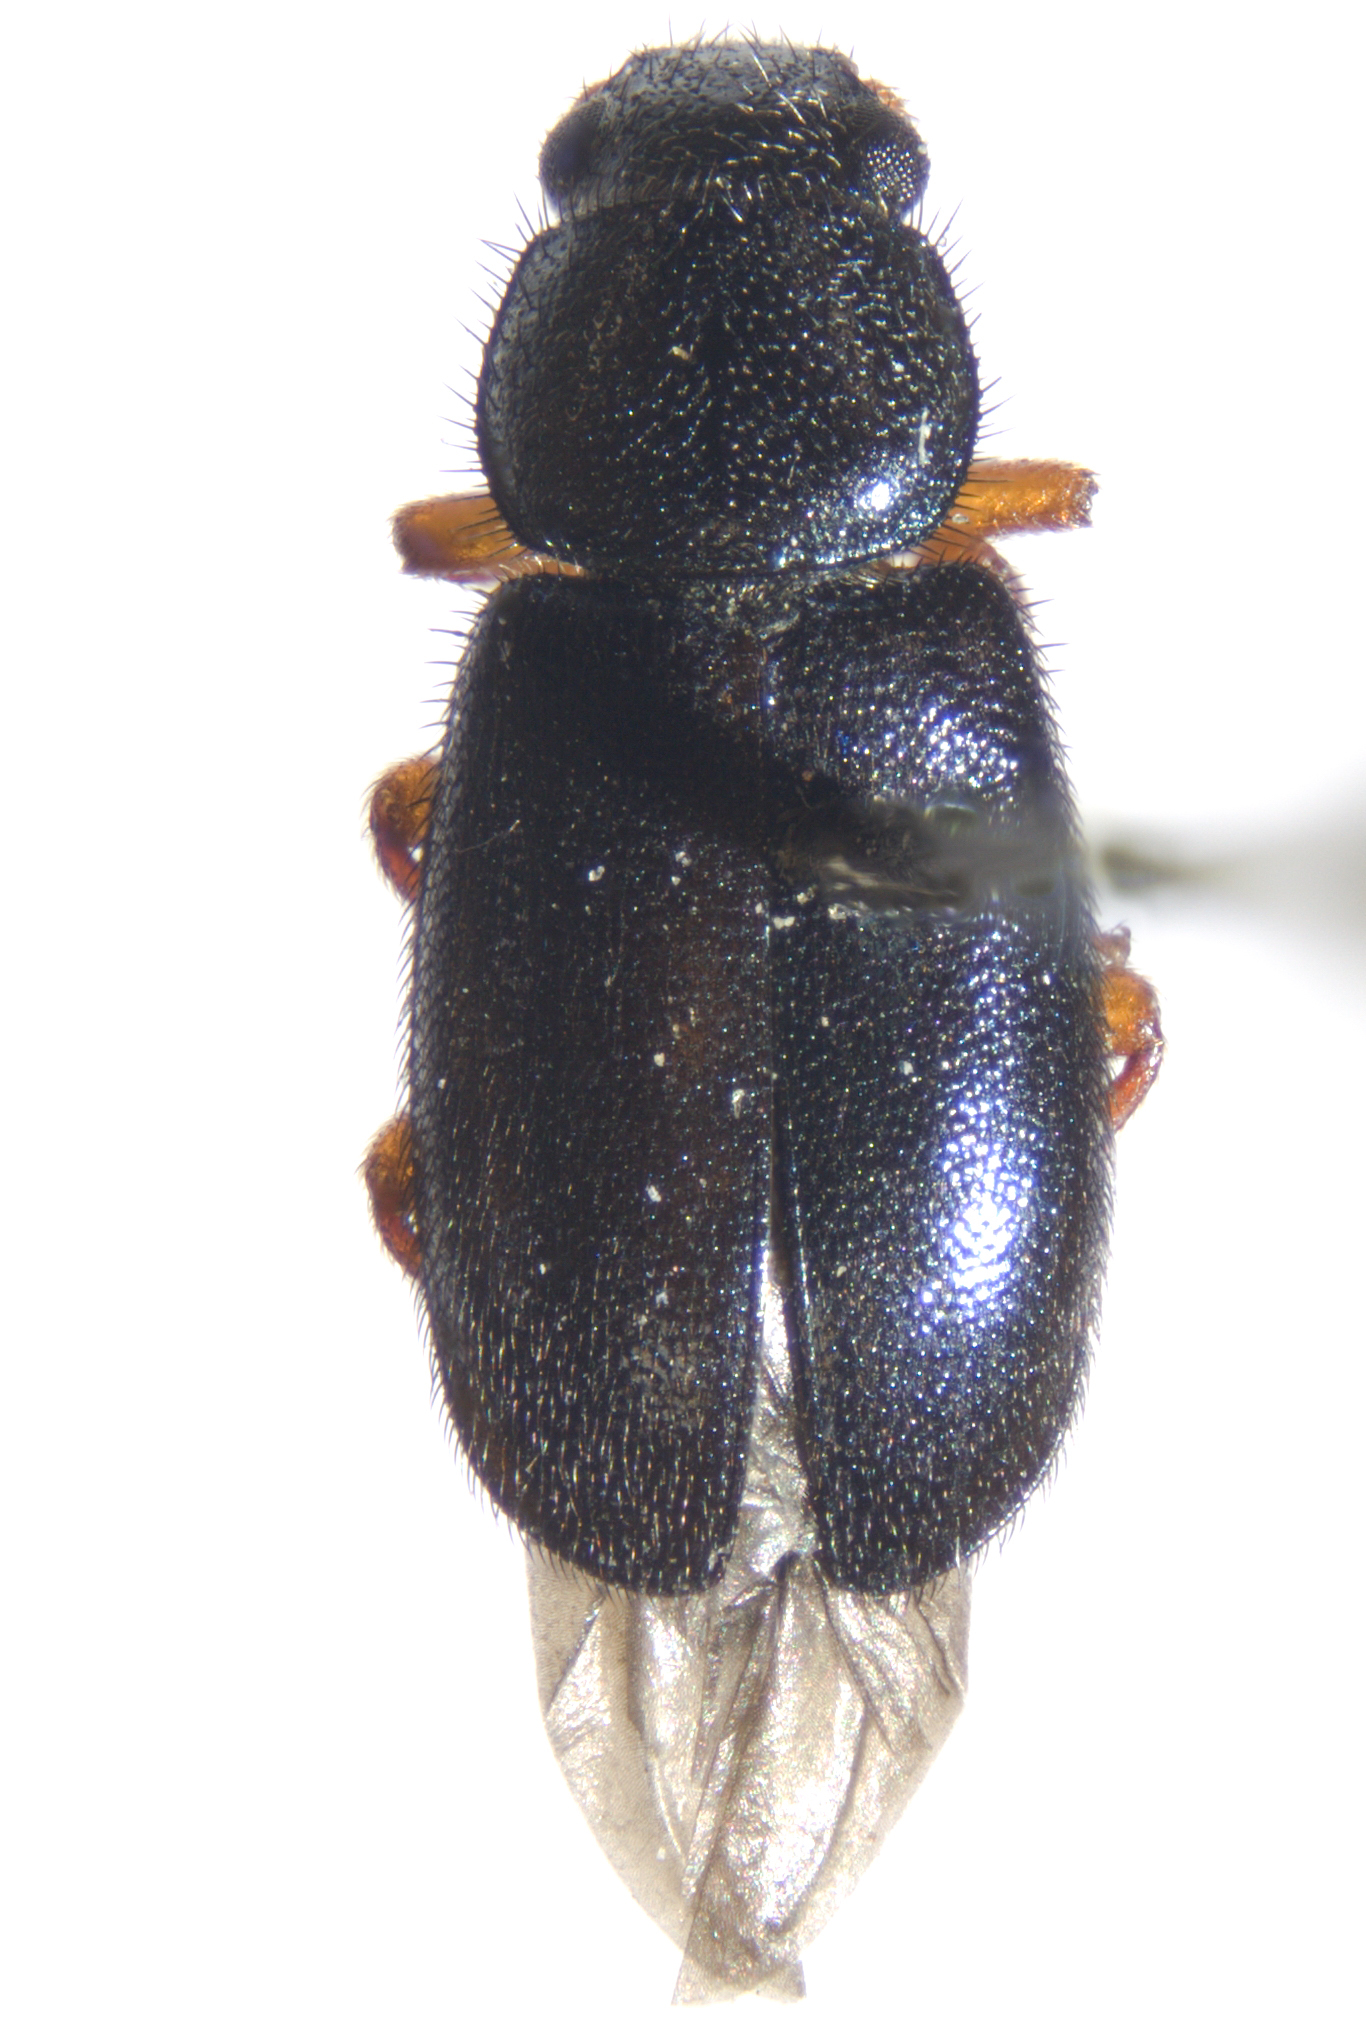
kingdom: Animalia
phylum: Arthropoda
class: Insecta
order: Coleoptera
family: Cleridae
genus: Necrobia
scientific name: Necrobia rufipes
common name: Red-legged ham beetle
